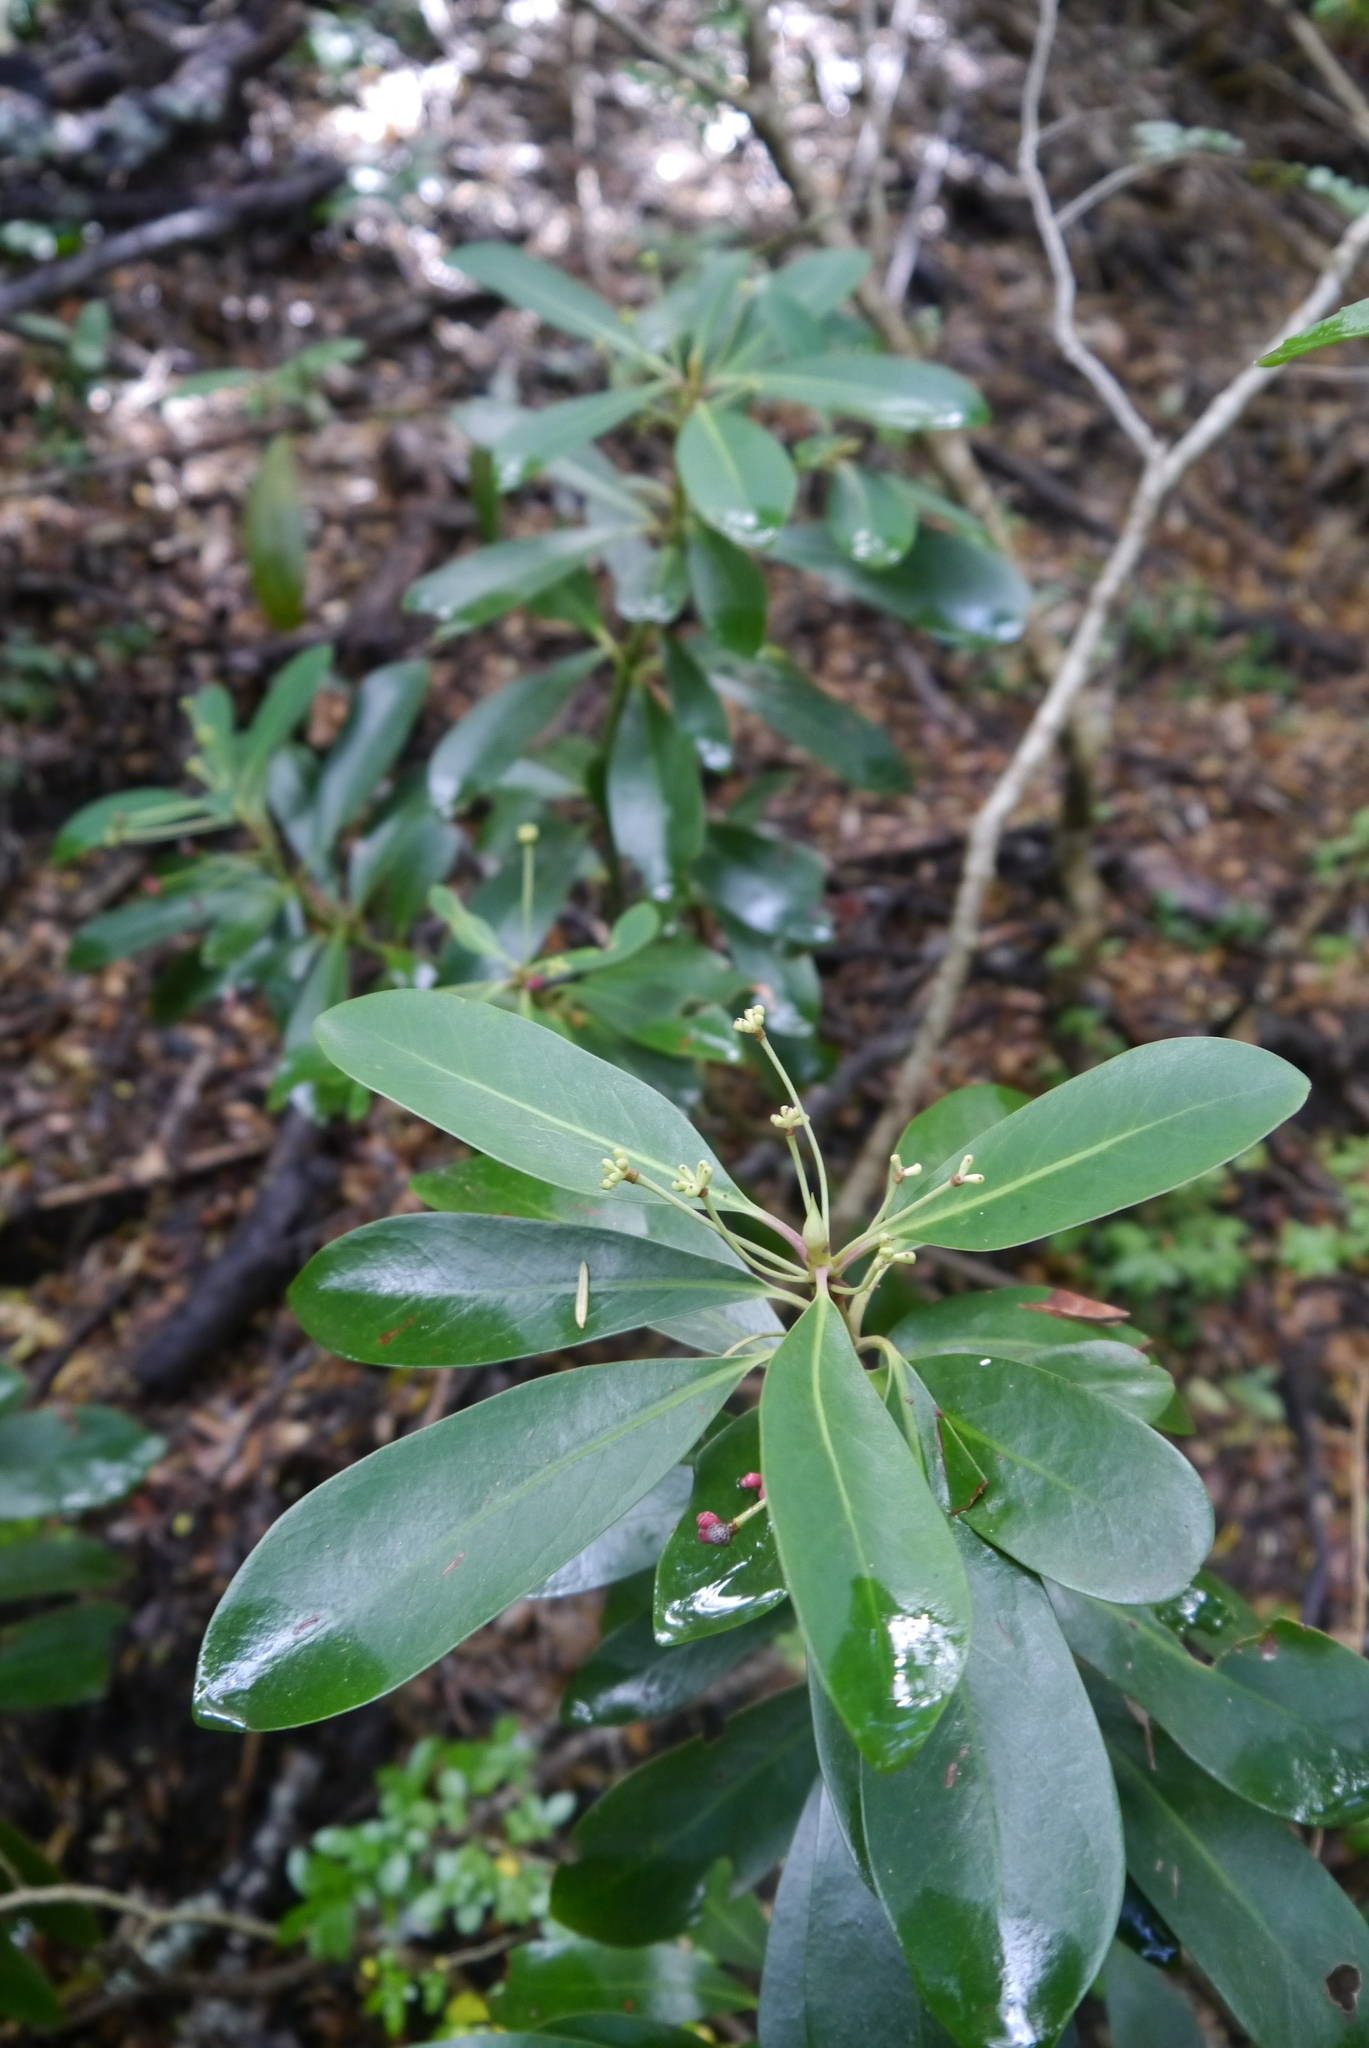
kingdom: Plantae
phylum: Tracheophyta
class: Magnoliopsida
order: Canellales
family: Winteraceae
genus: Drimys
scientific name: Drimys andina
